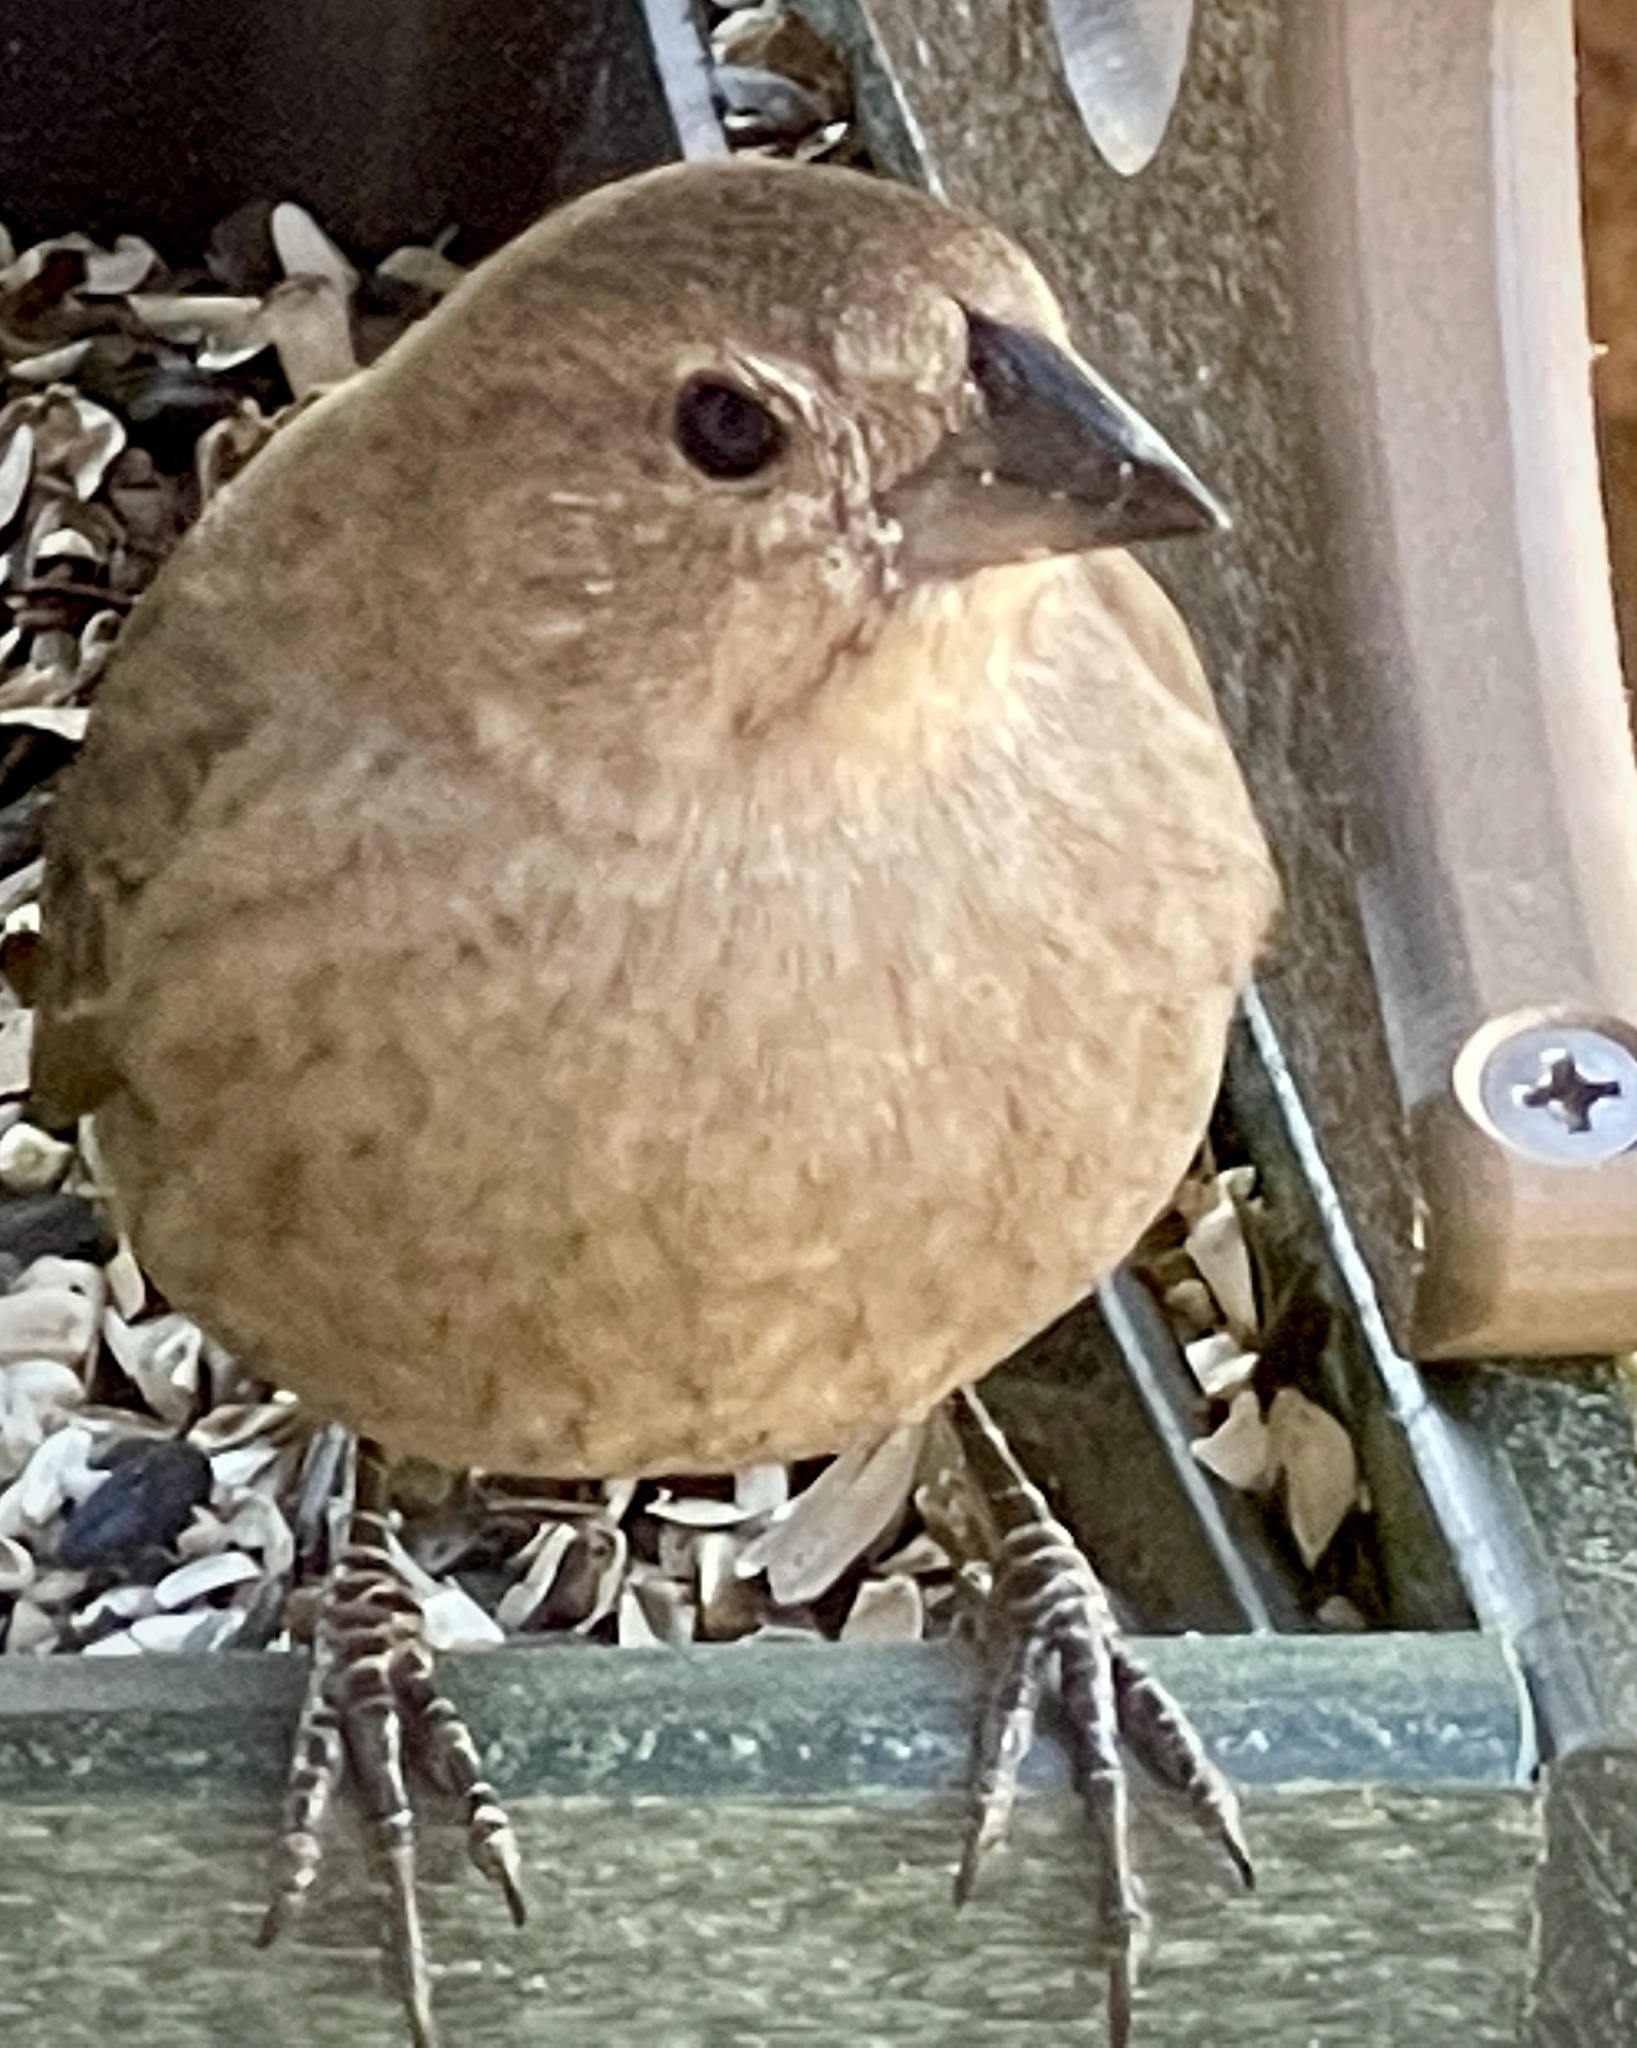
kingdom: Animalia
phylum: Chordata
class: Aves
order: Passeriformes
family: Icteridae
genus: Molothrus
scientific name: Molothrus ater
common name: Brown-headed cowbird
